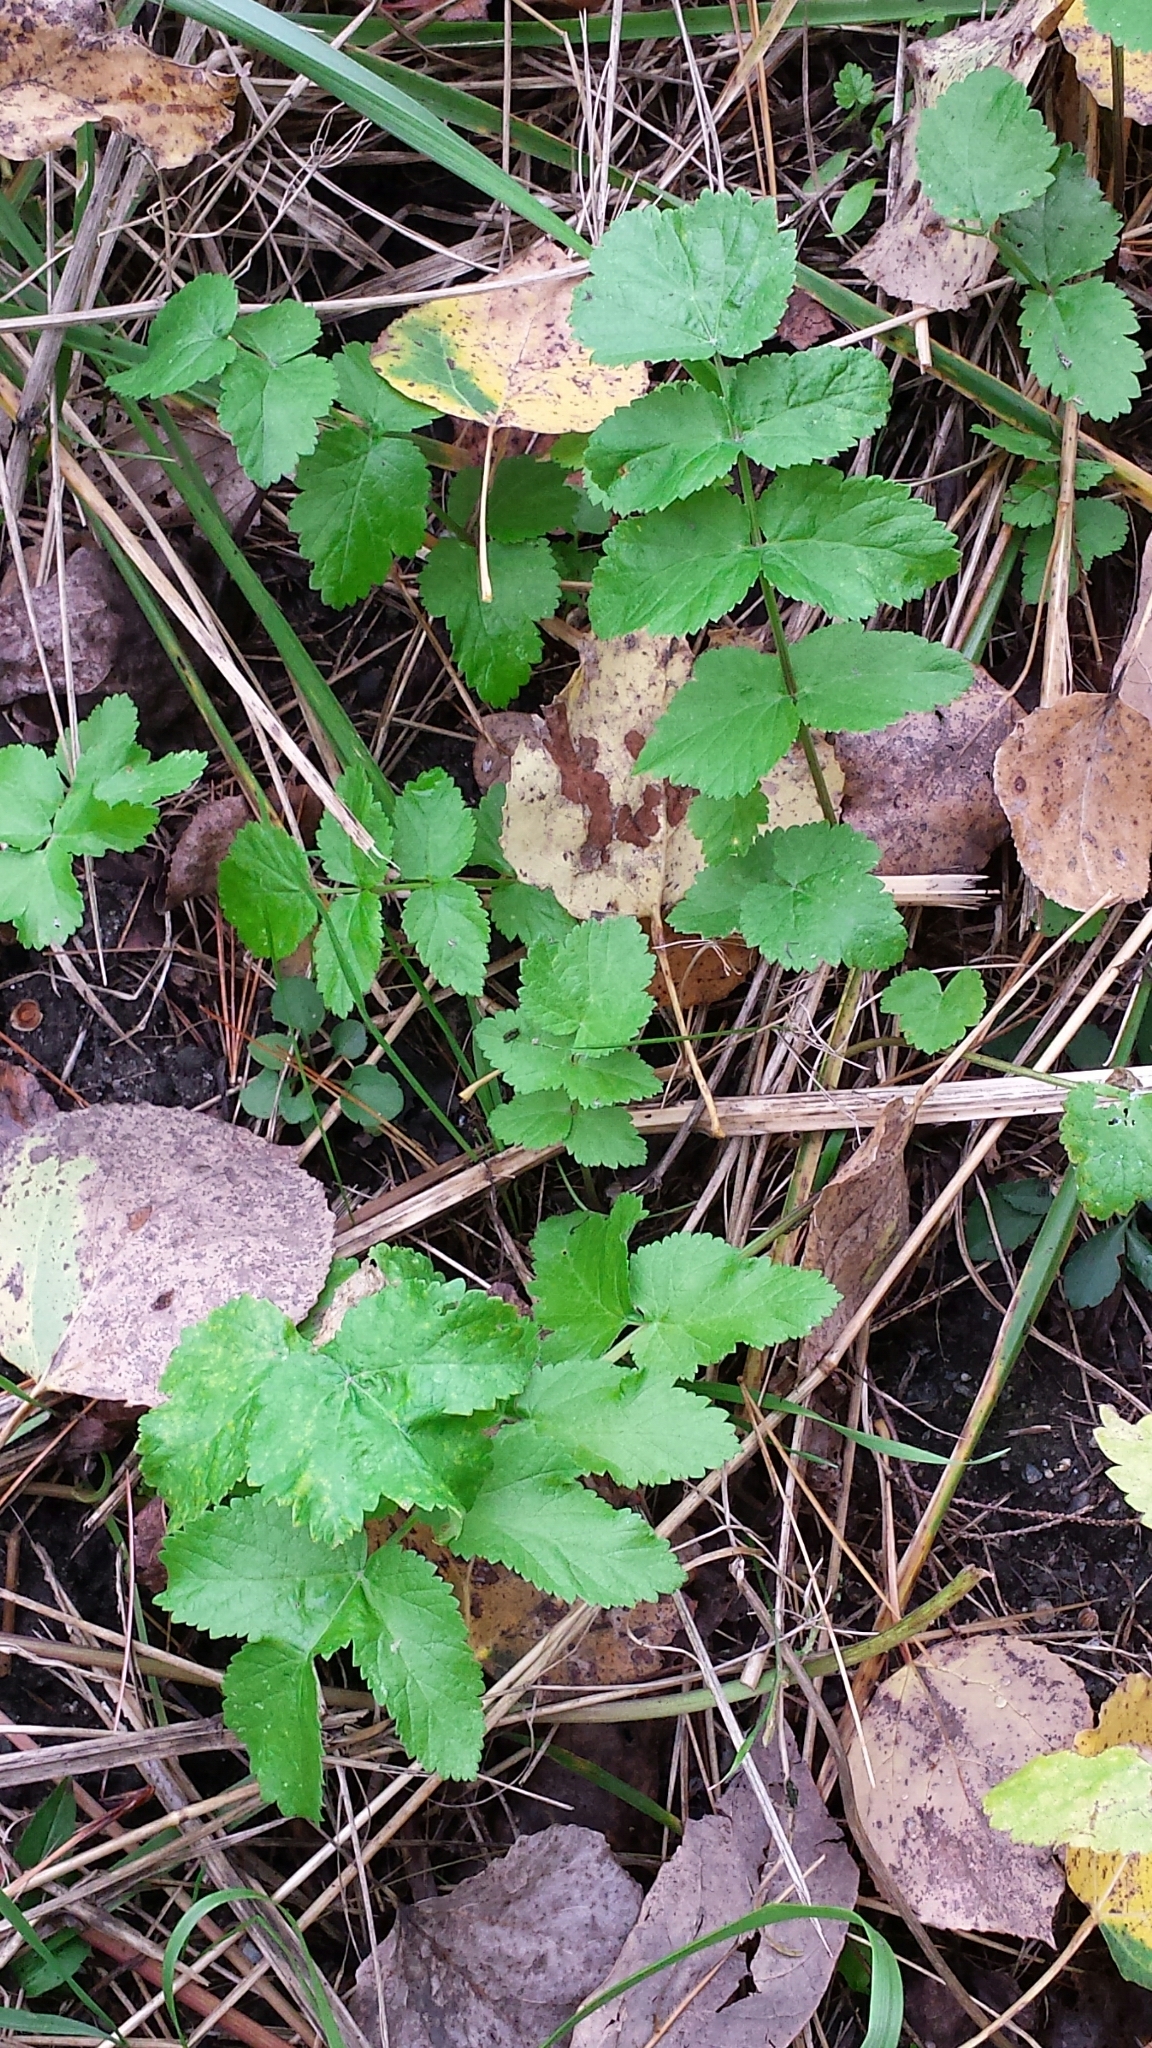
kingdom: Plantae
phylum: Tracheophyta
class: Magnoliopsida
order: Apiales
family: Apiaceae
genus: Pastinaca
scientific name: Pastinaca sativa
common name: Wild parsnip
